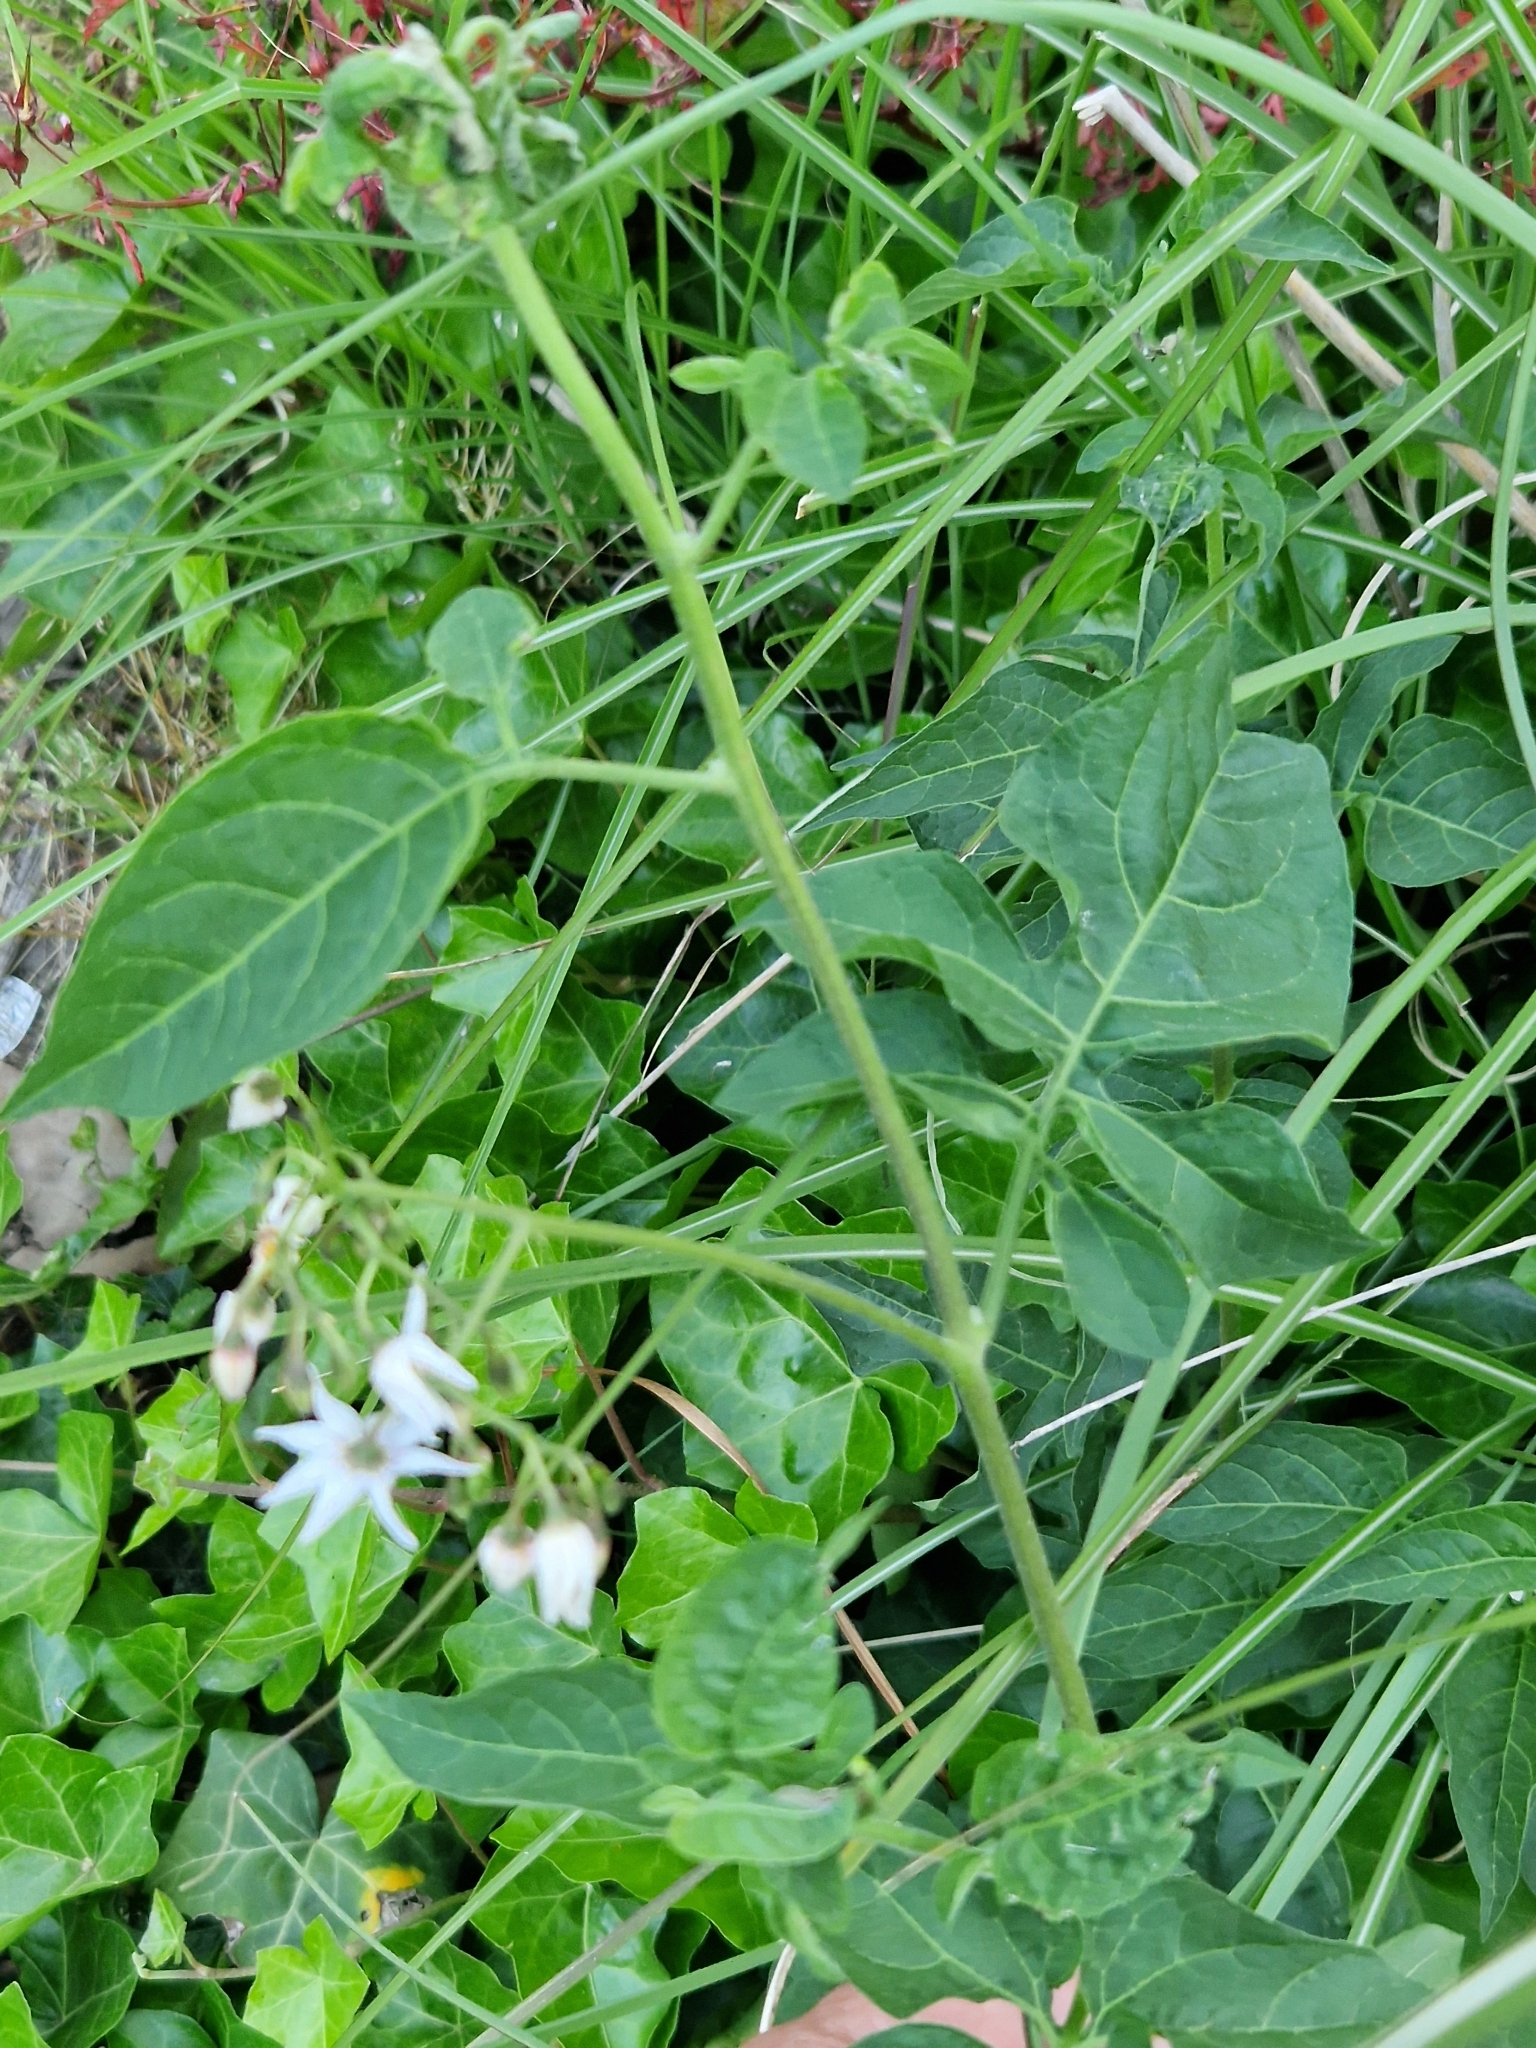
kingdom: Plantae
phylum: Tracheophyta
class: Magnoliopsida
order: Solanales
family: Solanaceae
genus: Solanum
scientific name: Solanum dulcamara
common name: Climbing nightshade
